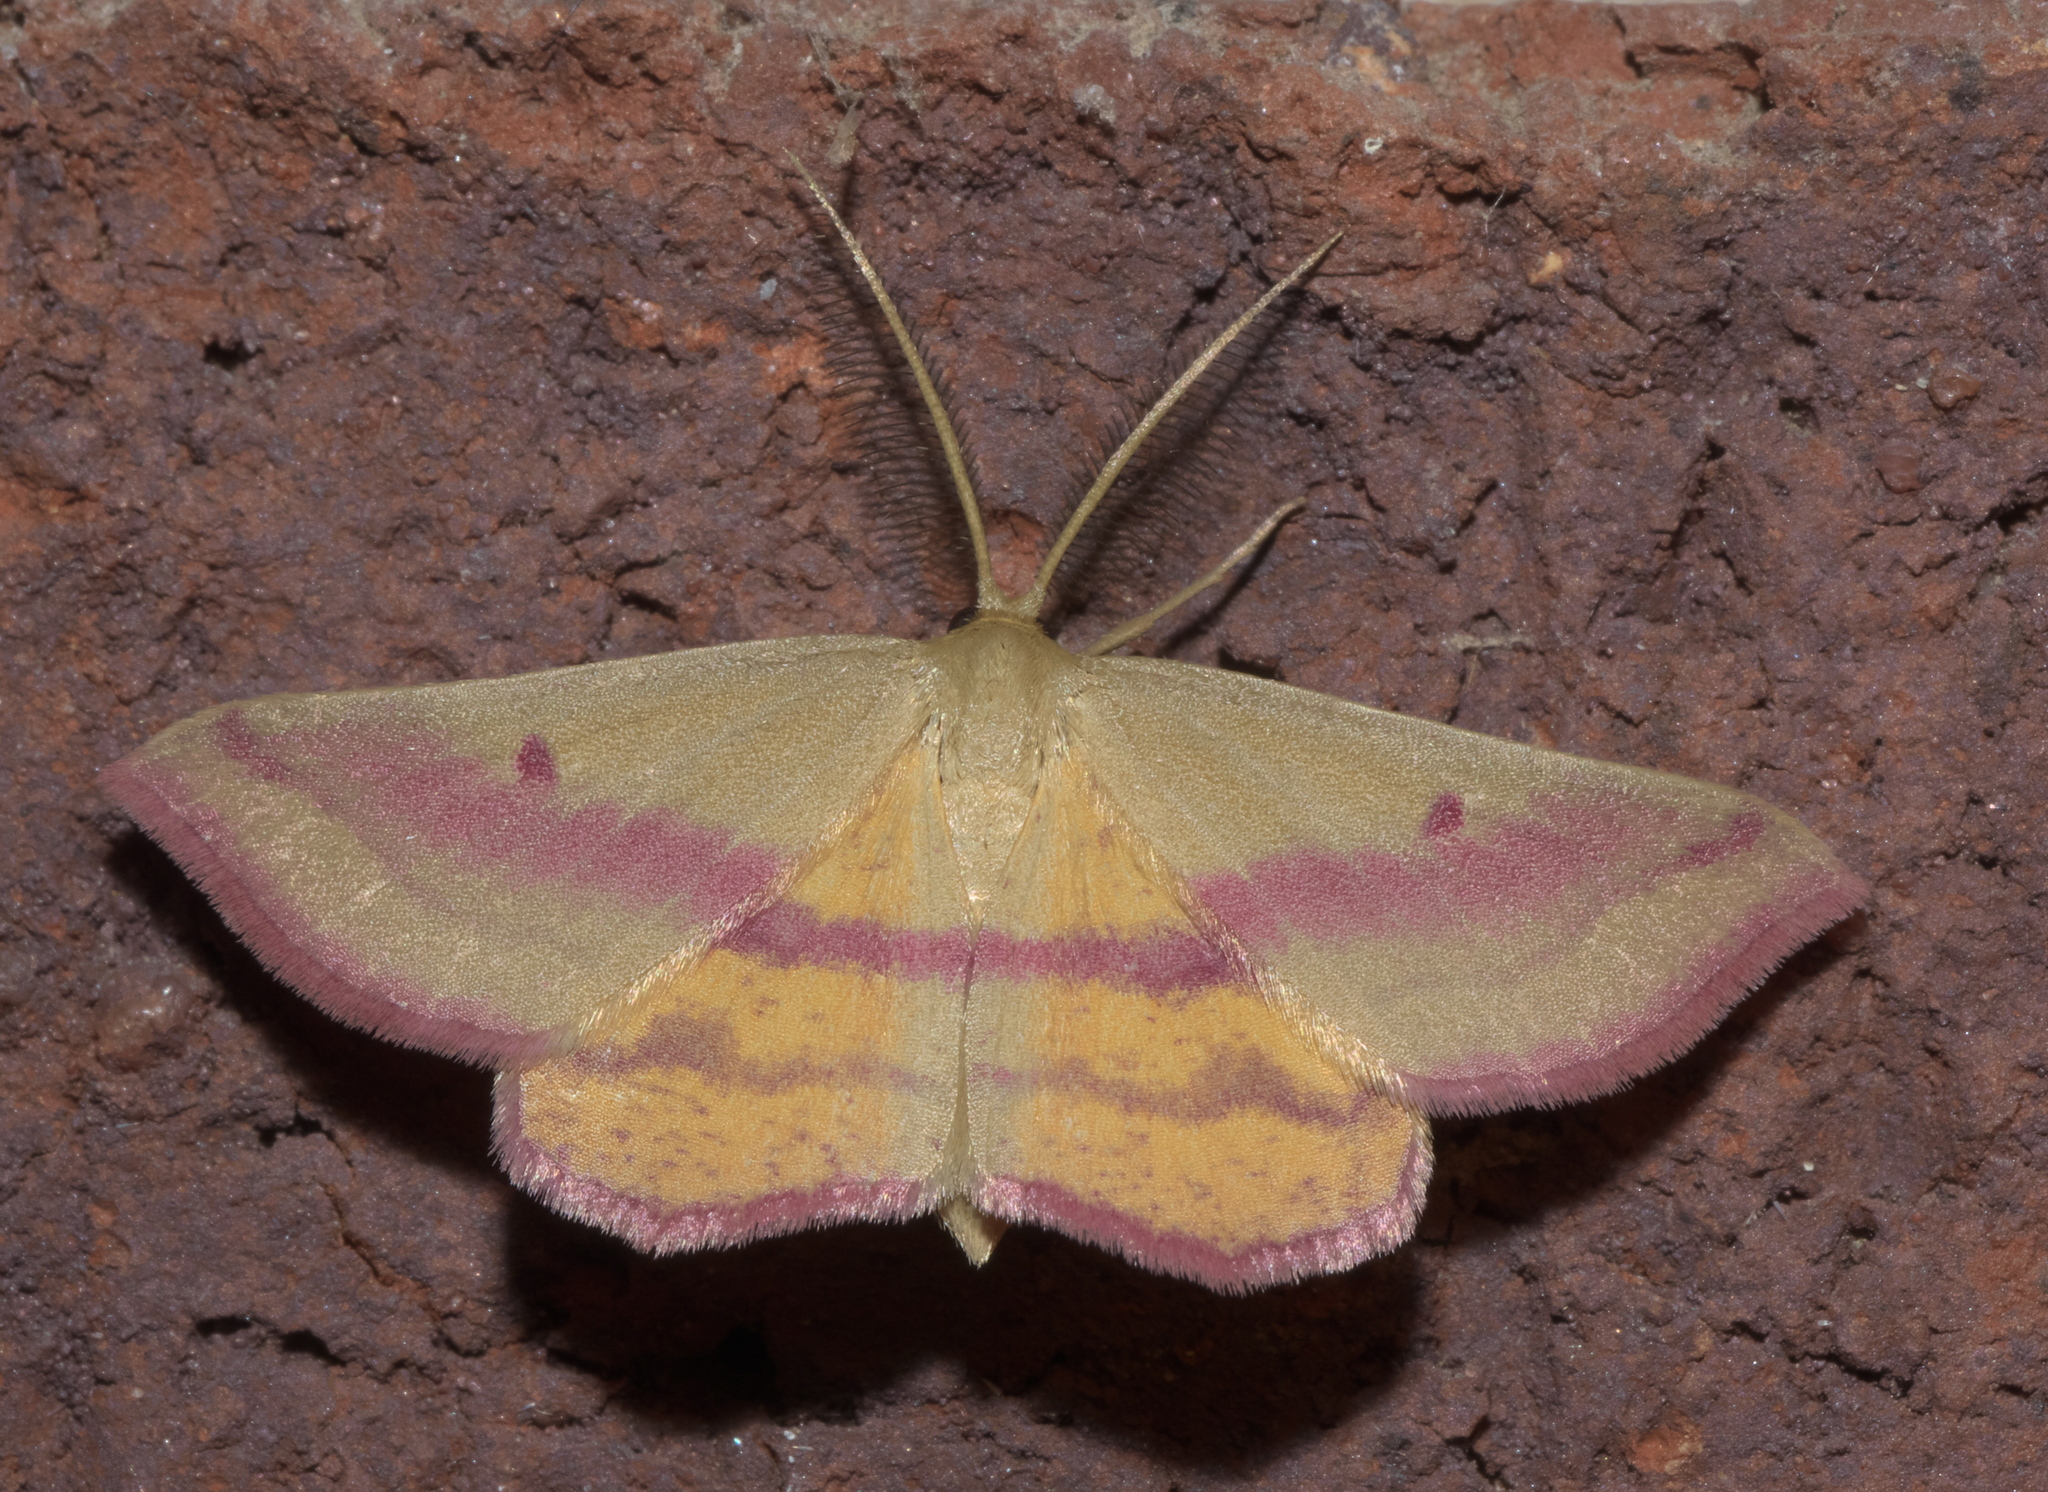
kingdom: Animalia
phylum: Arthropoda
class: Insecta
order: Lepidoptera
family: Geometridae
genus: Haematopis
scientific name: Haematopis grataria
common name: Chickweed geometer
